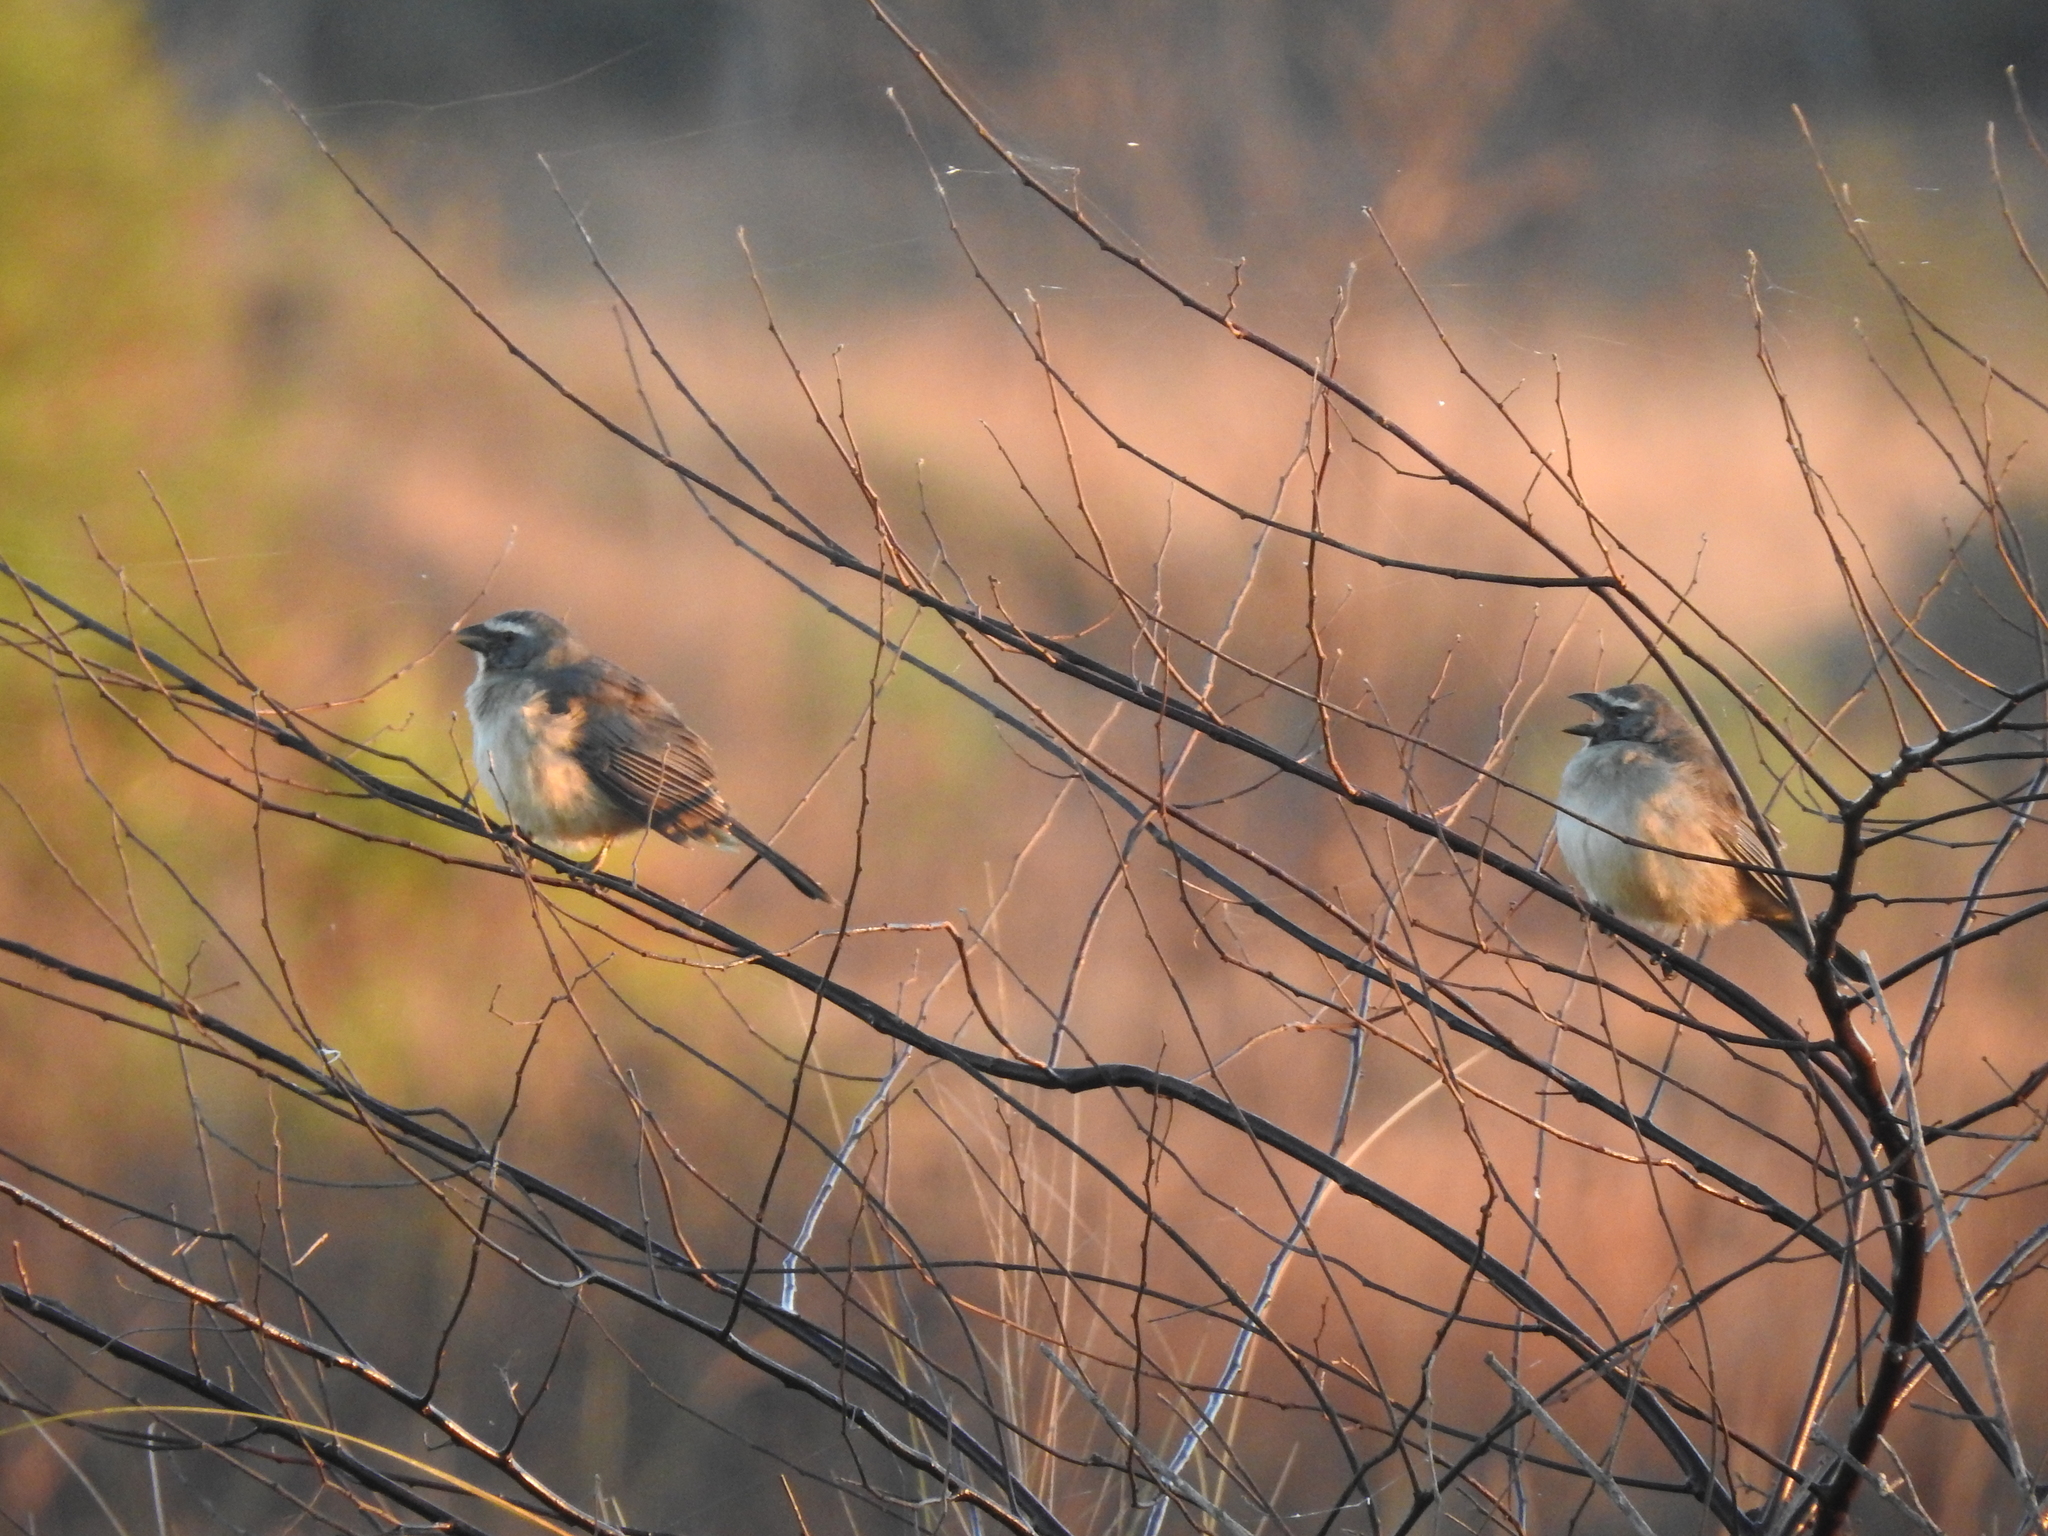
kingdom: Animalia
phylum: Chordata
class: Aves
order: Passeriformes
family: Thraupidae
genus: Saltator
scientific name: Saltator coerulescens
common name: Grayish saltator
